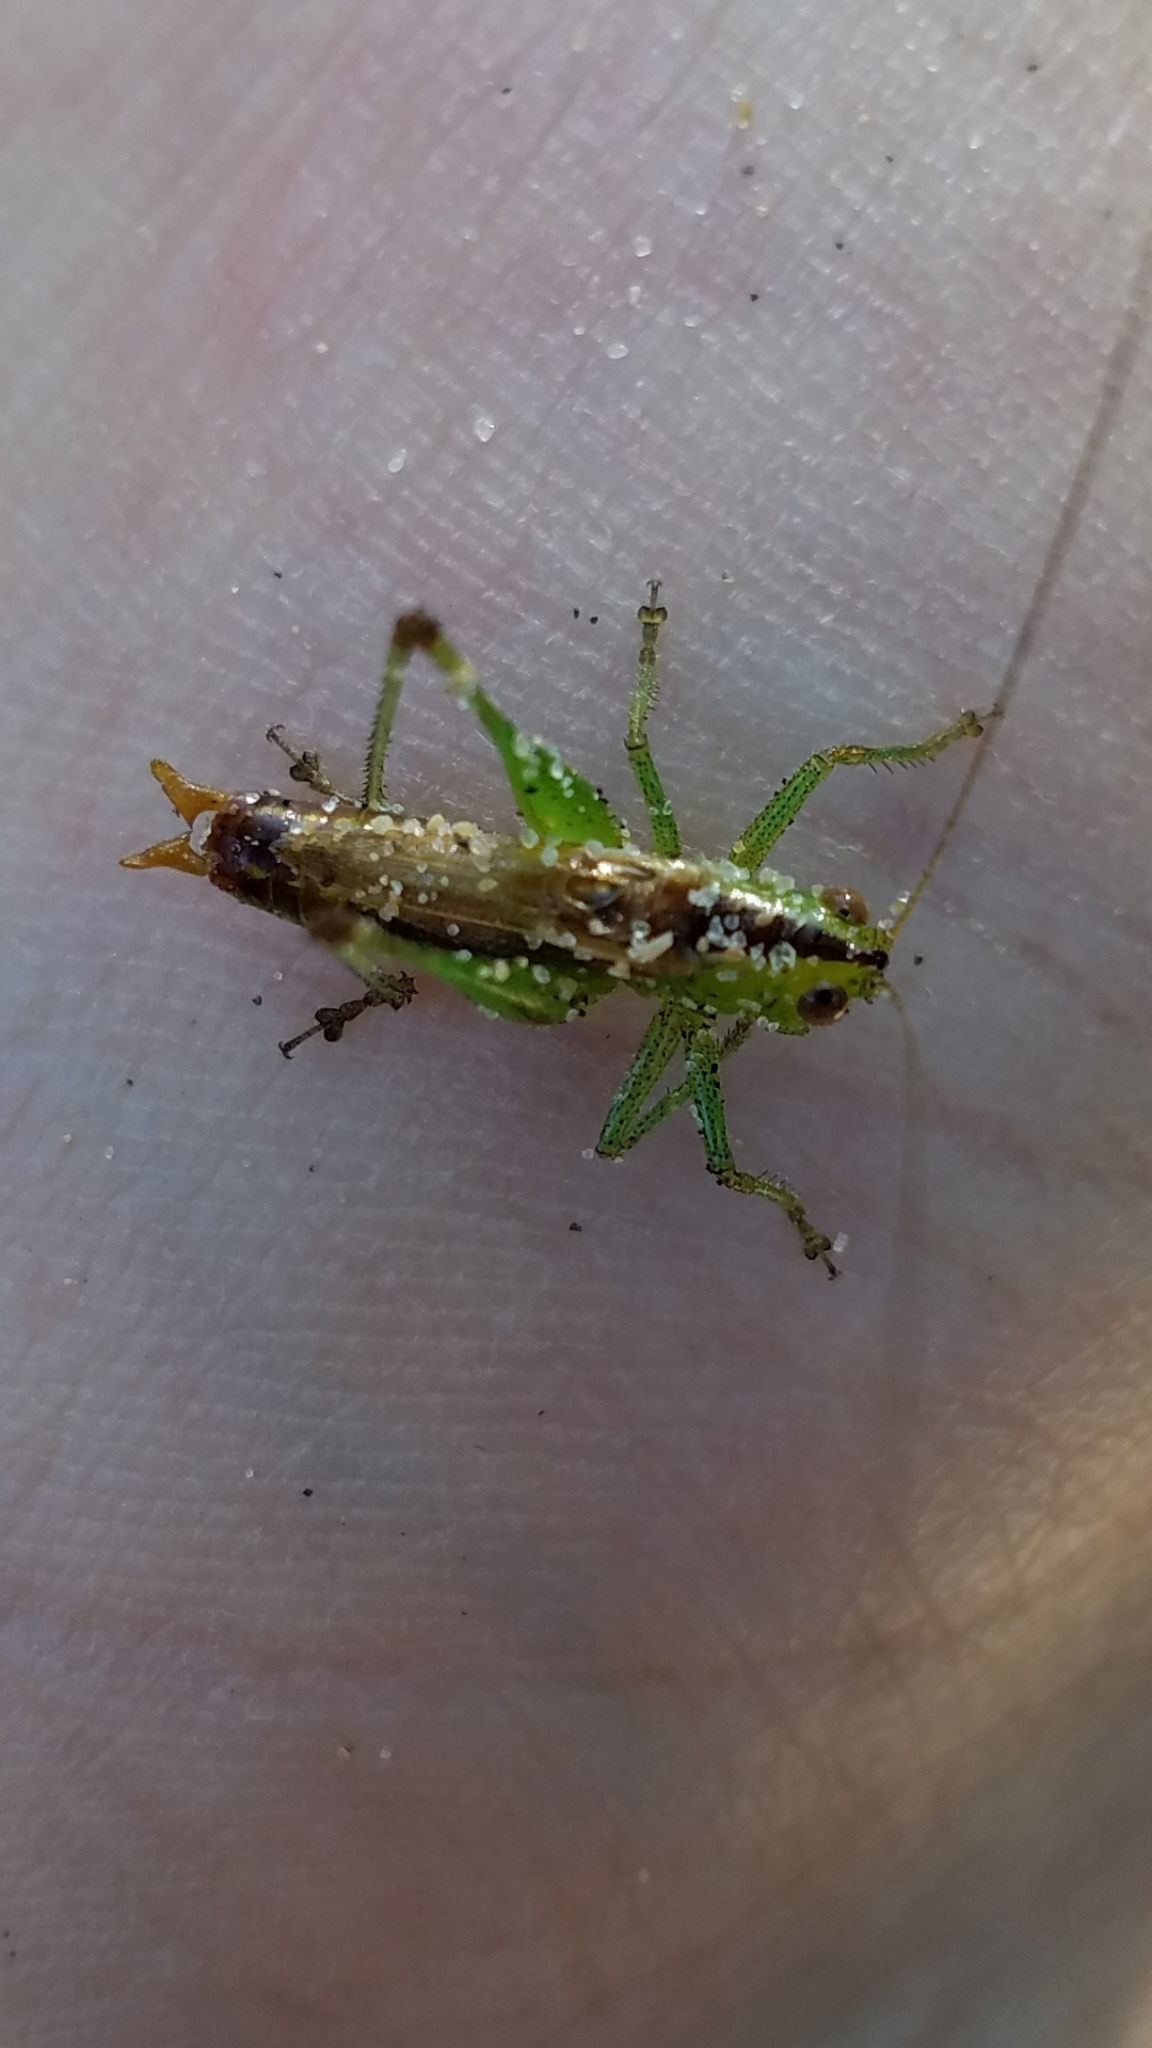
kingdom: Animalia
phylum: Arthropoda
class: Insecta
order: Orthoptera
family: Tettigoniidae
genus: Conocephalus
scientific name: Conocephalus brevipennis
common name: Short-winged meadow katydid
